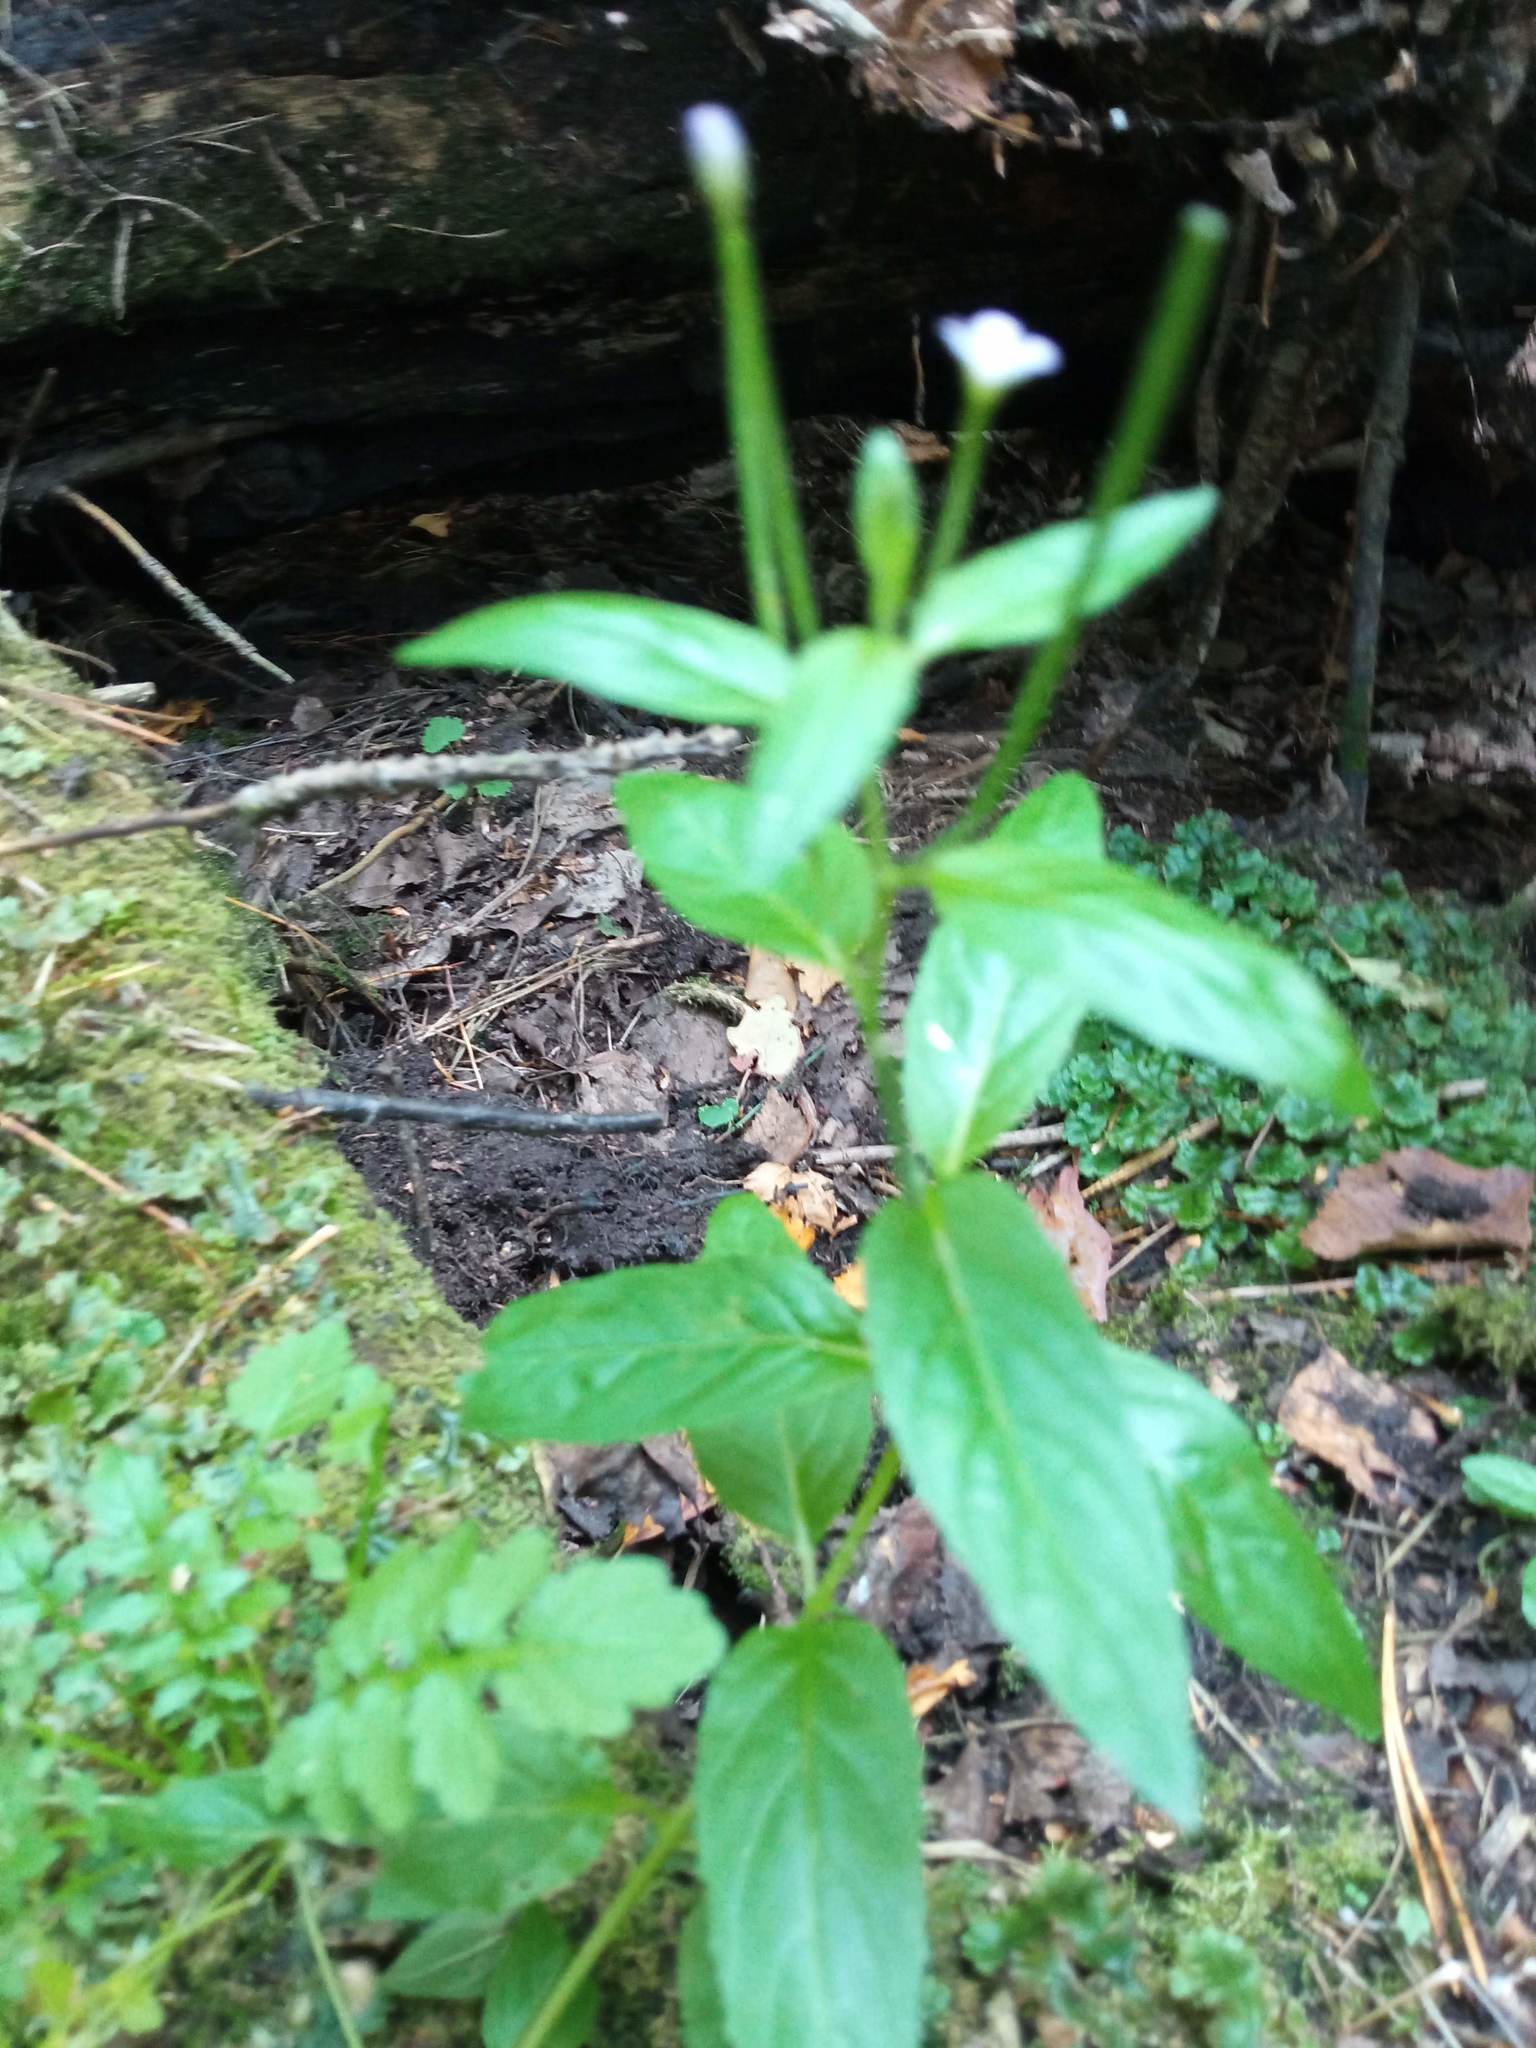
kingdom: Plantae
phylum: Tracheophyta
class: Magnoliopsida
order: Myrtales
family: Onagraceae
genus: Epilobium
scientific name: Epilobium pseudorubescens
